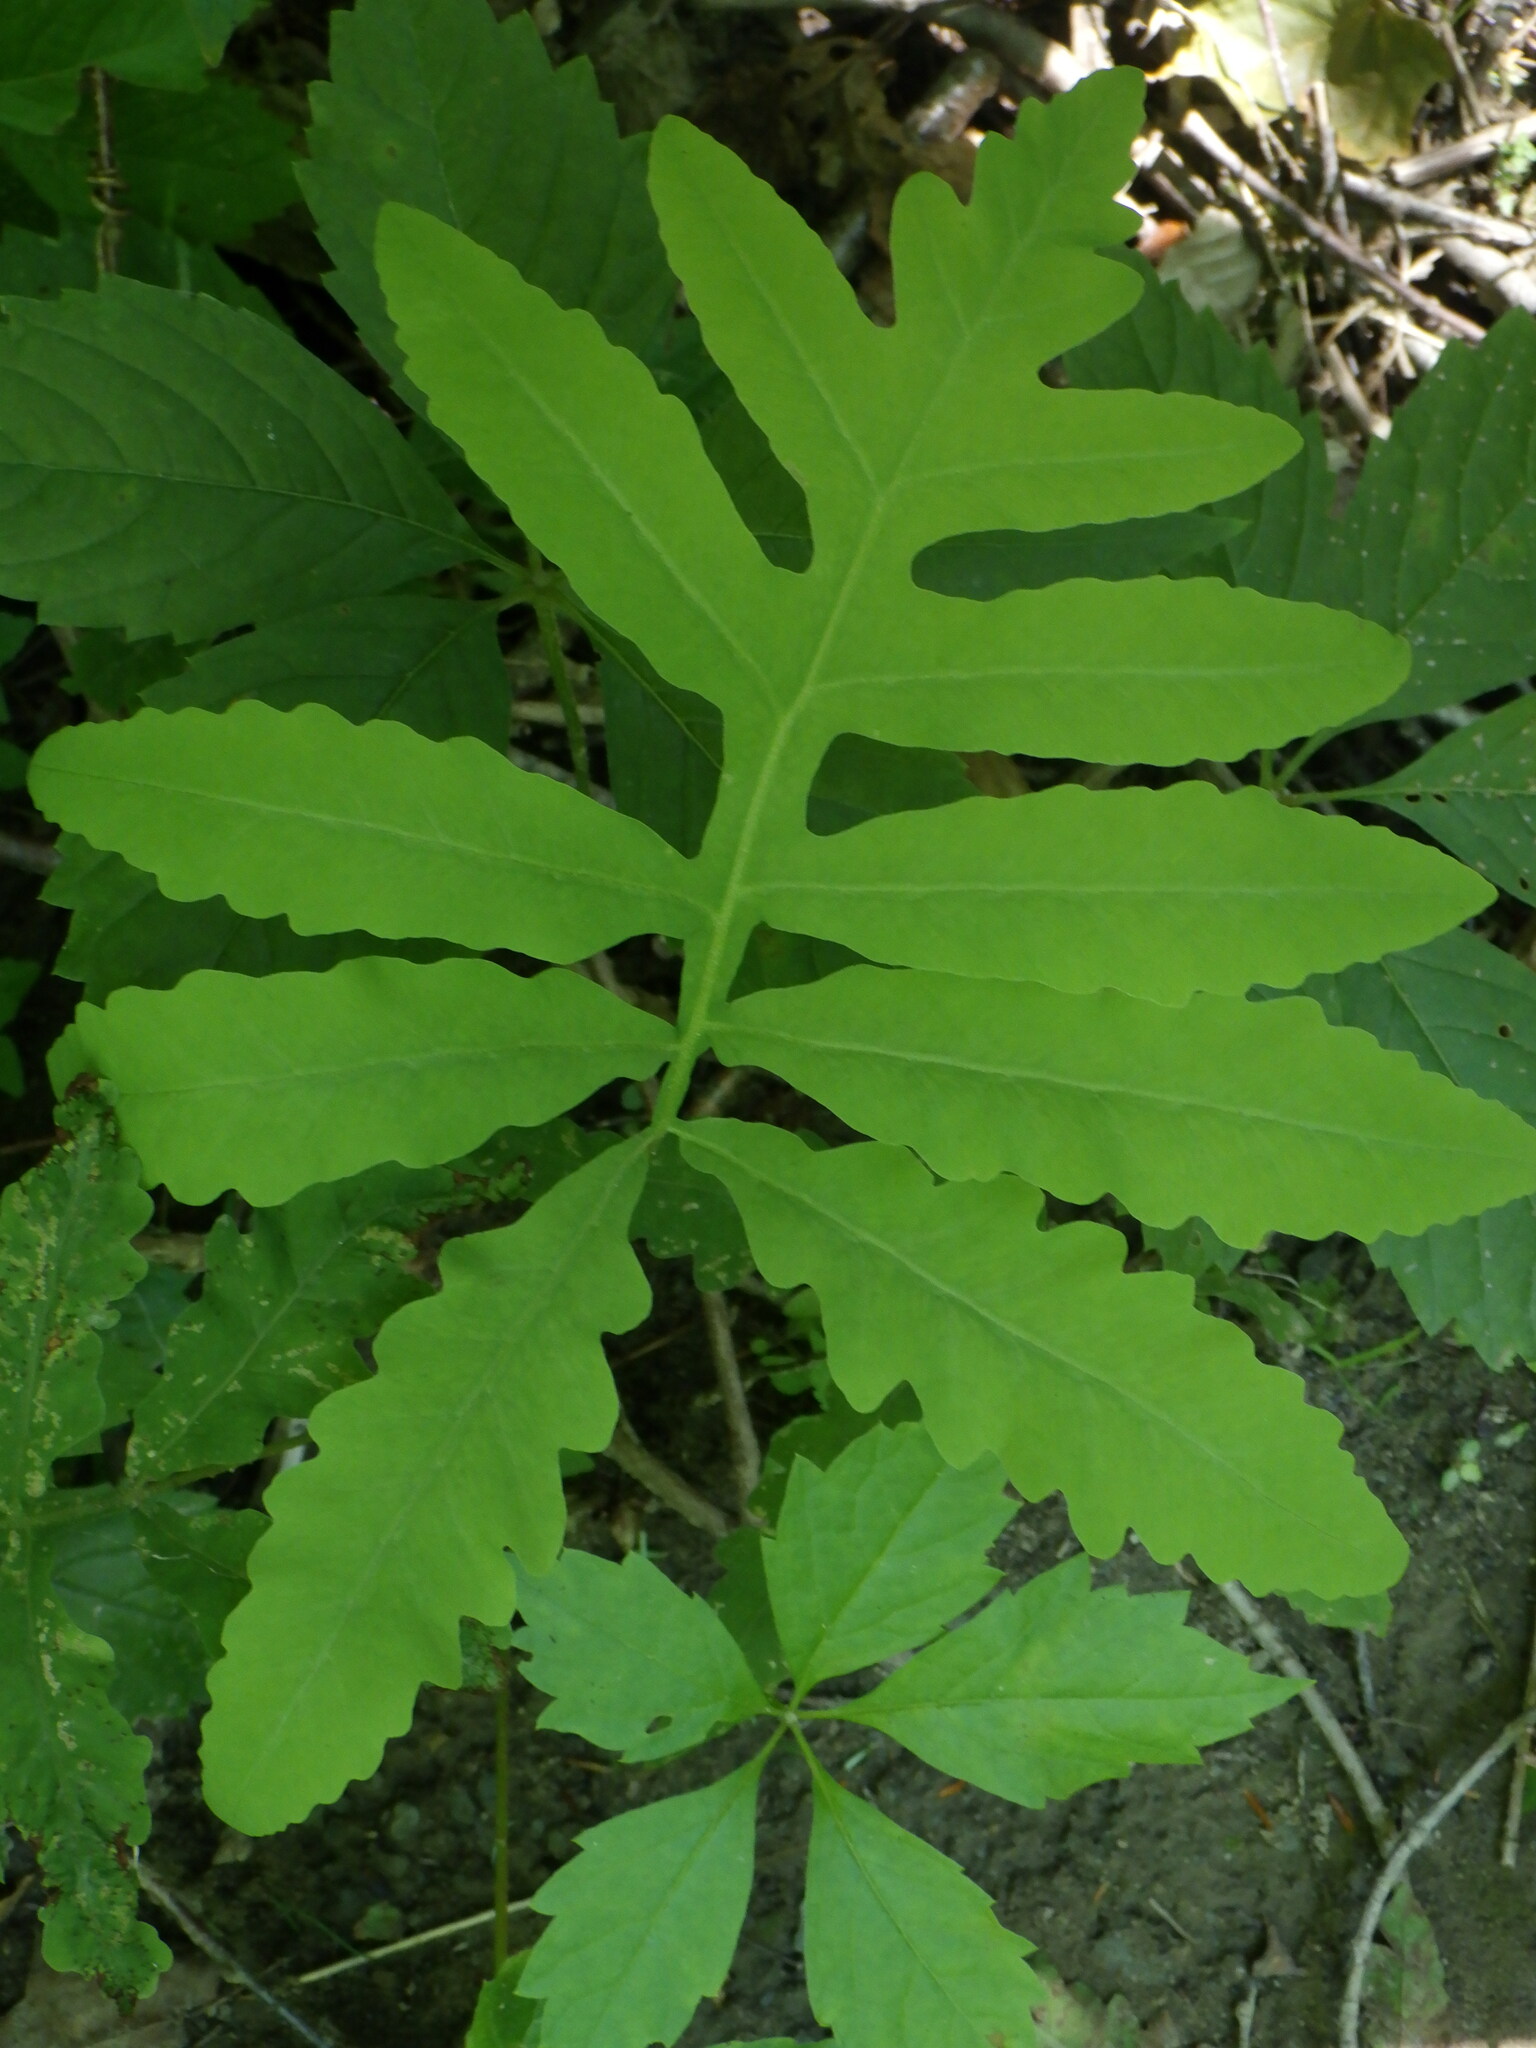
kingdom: Plantae
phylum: Tracheophyta
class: Polypodiopsida
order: Polypodiales
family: Onocleaceae
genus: Onoclea
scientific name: Onoclea sensibilis
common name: Sensitive fern
